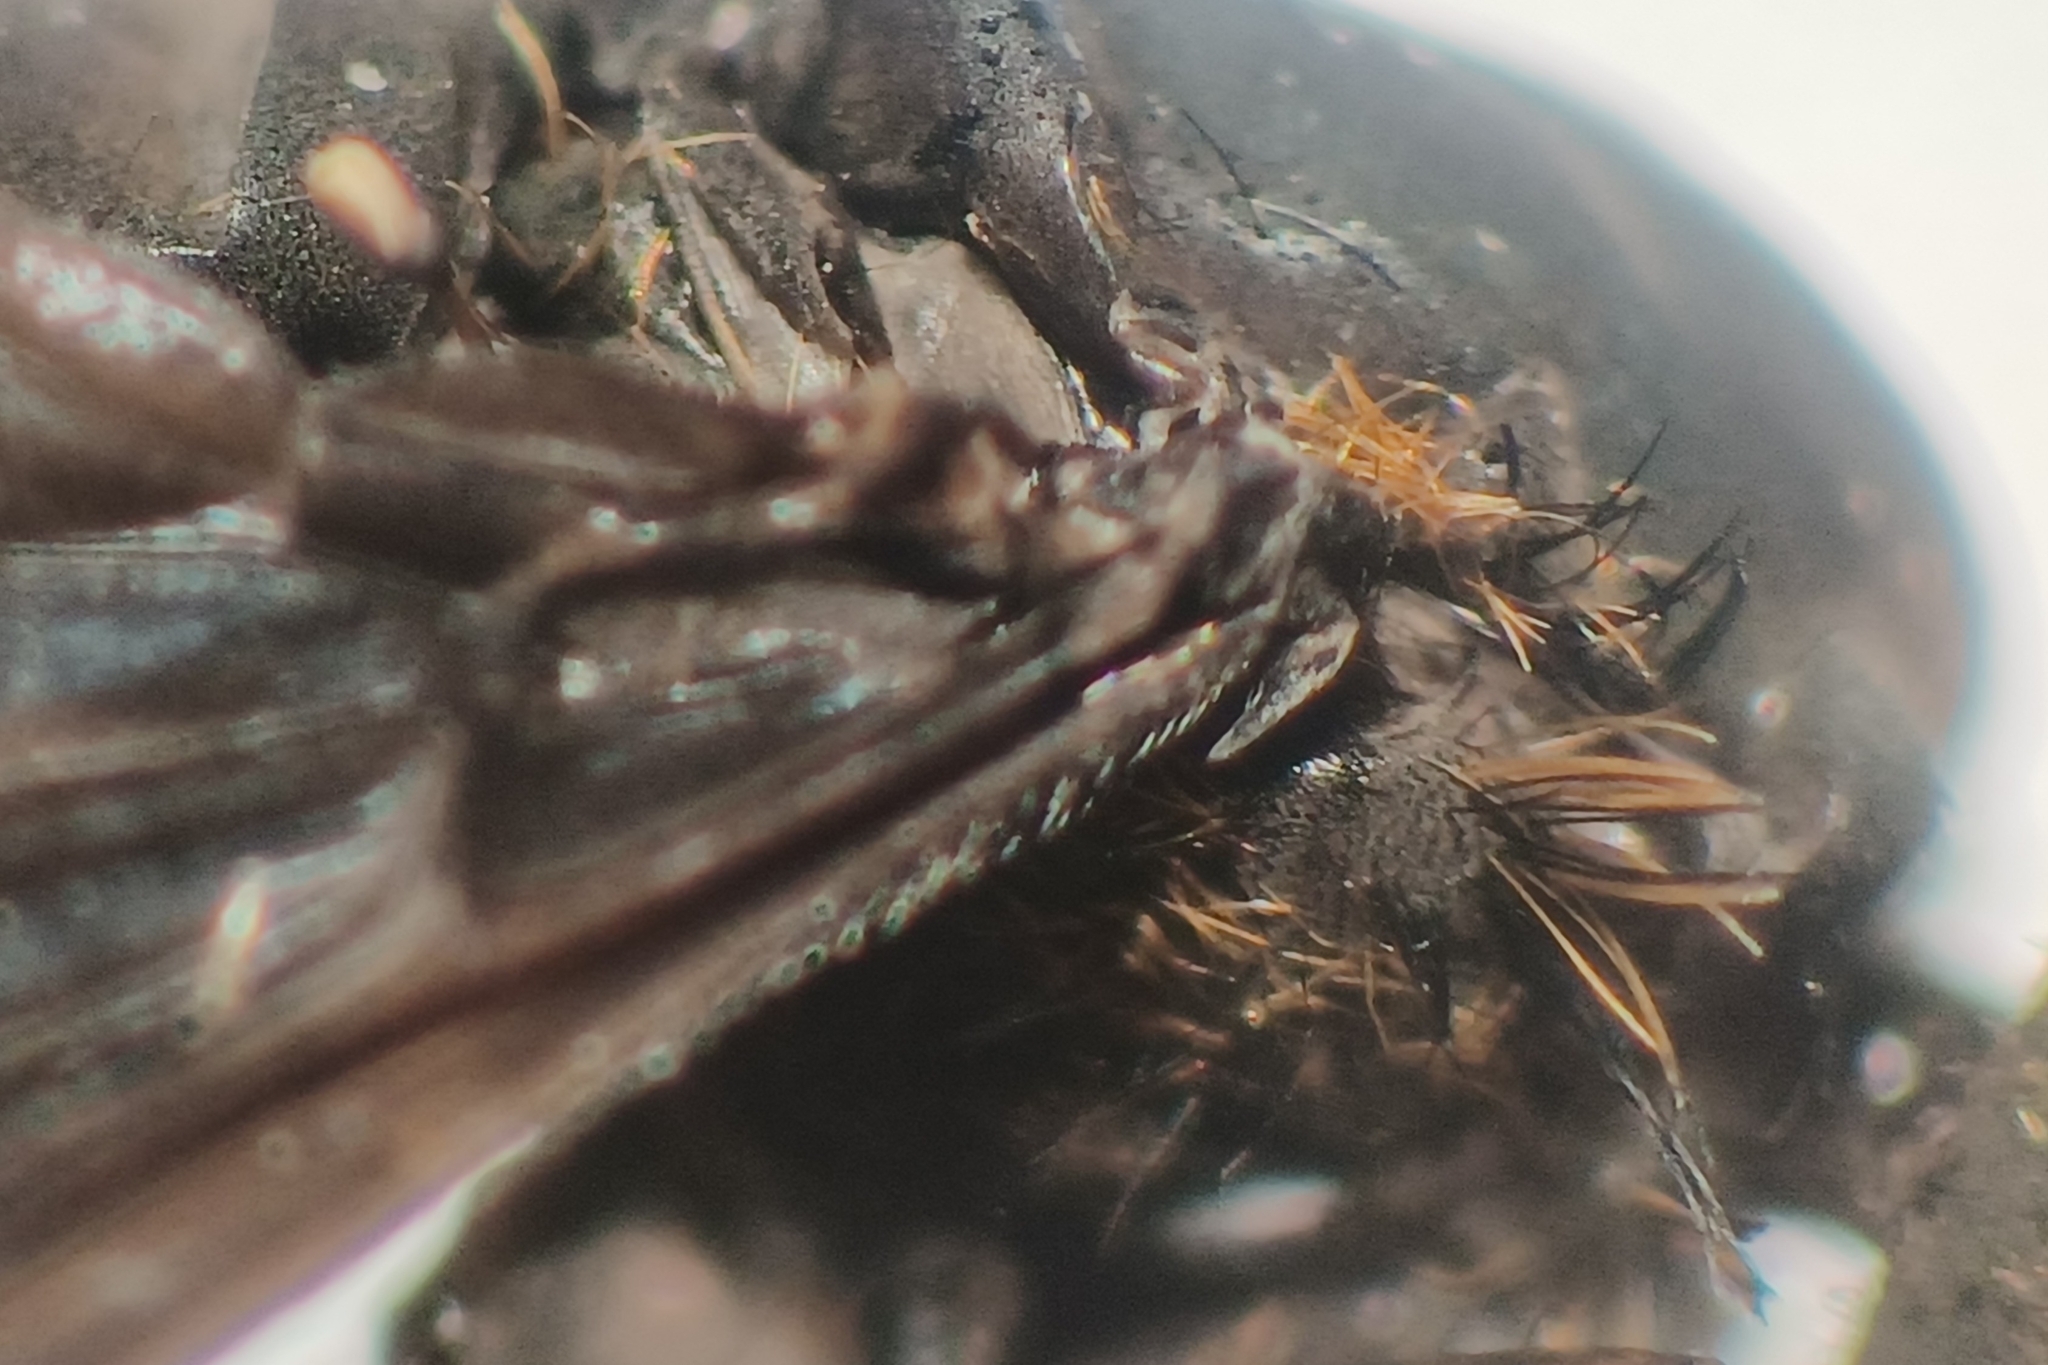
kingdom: Animalia
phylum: Arthropoda
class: Insecta
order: Diptera
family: Bombyliidae
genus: Hemipenthes
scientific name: Hemipenthes
